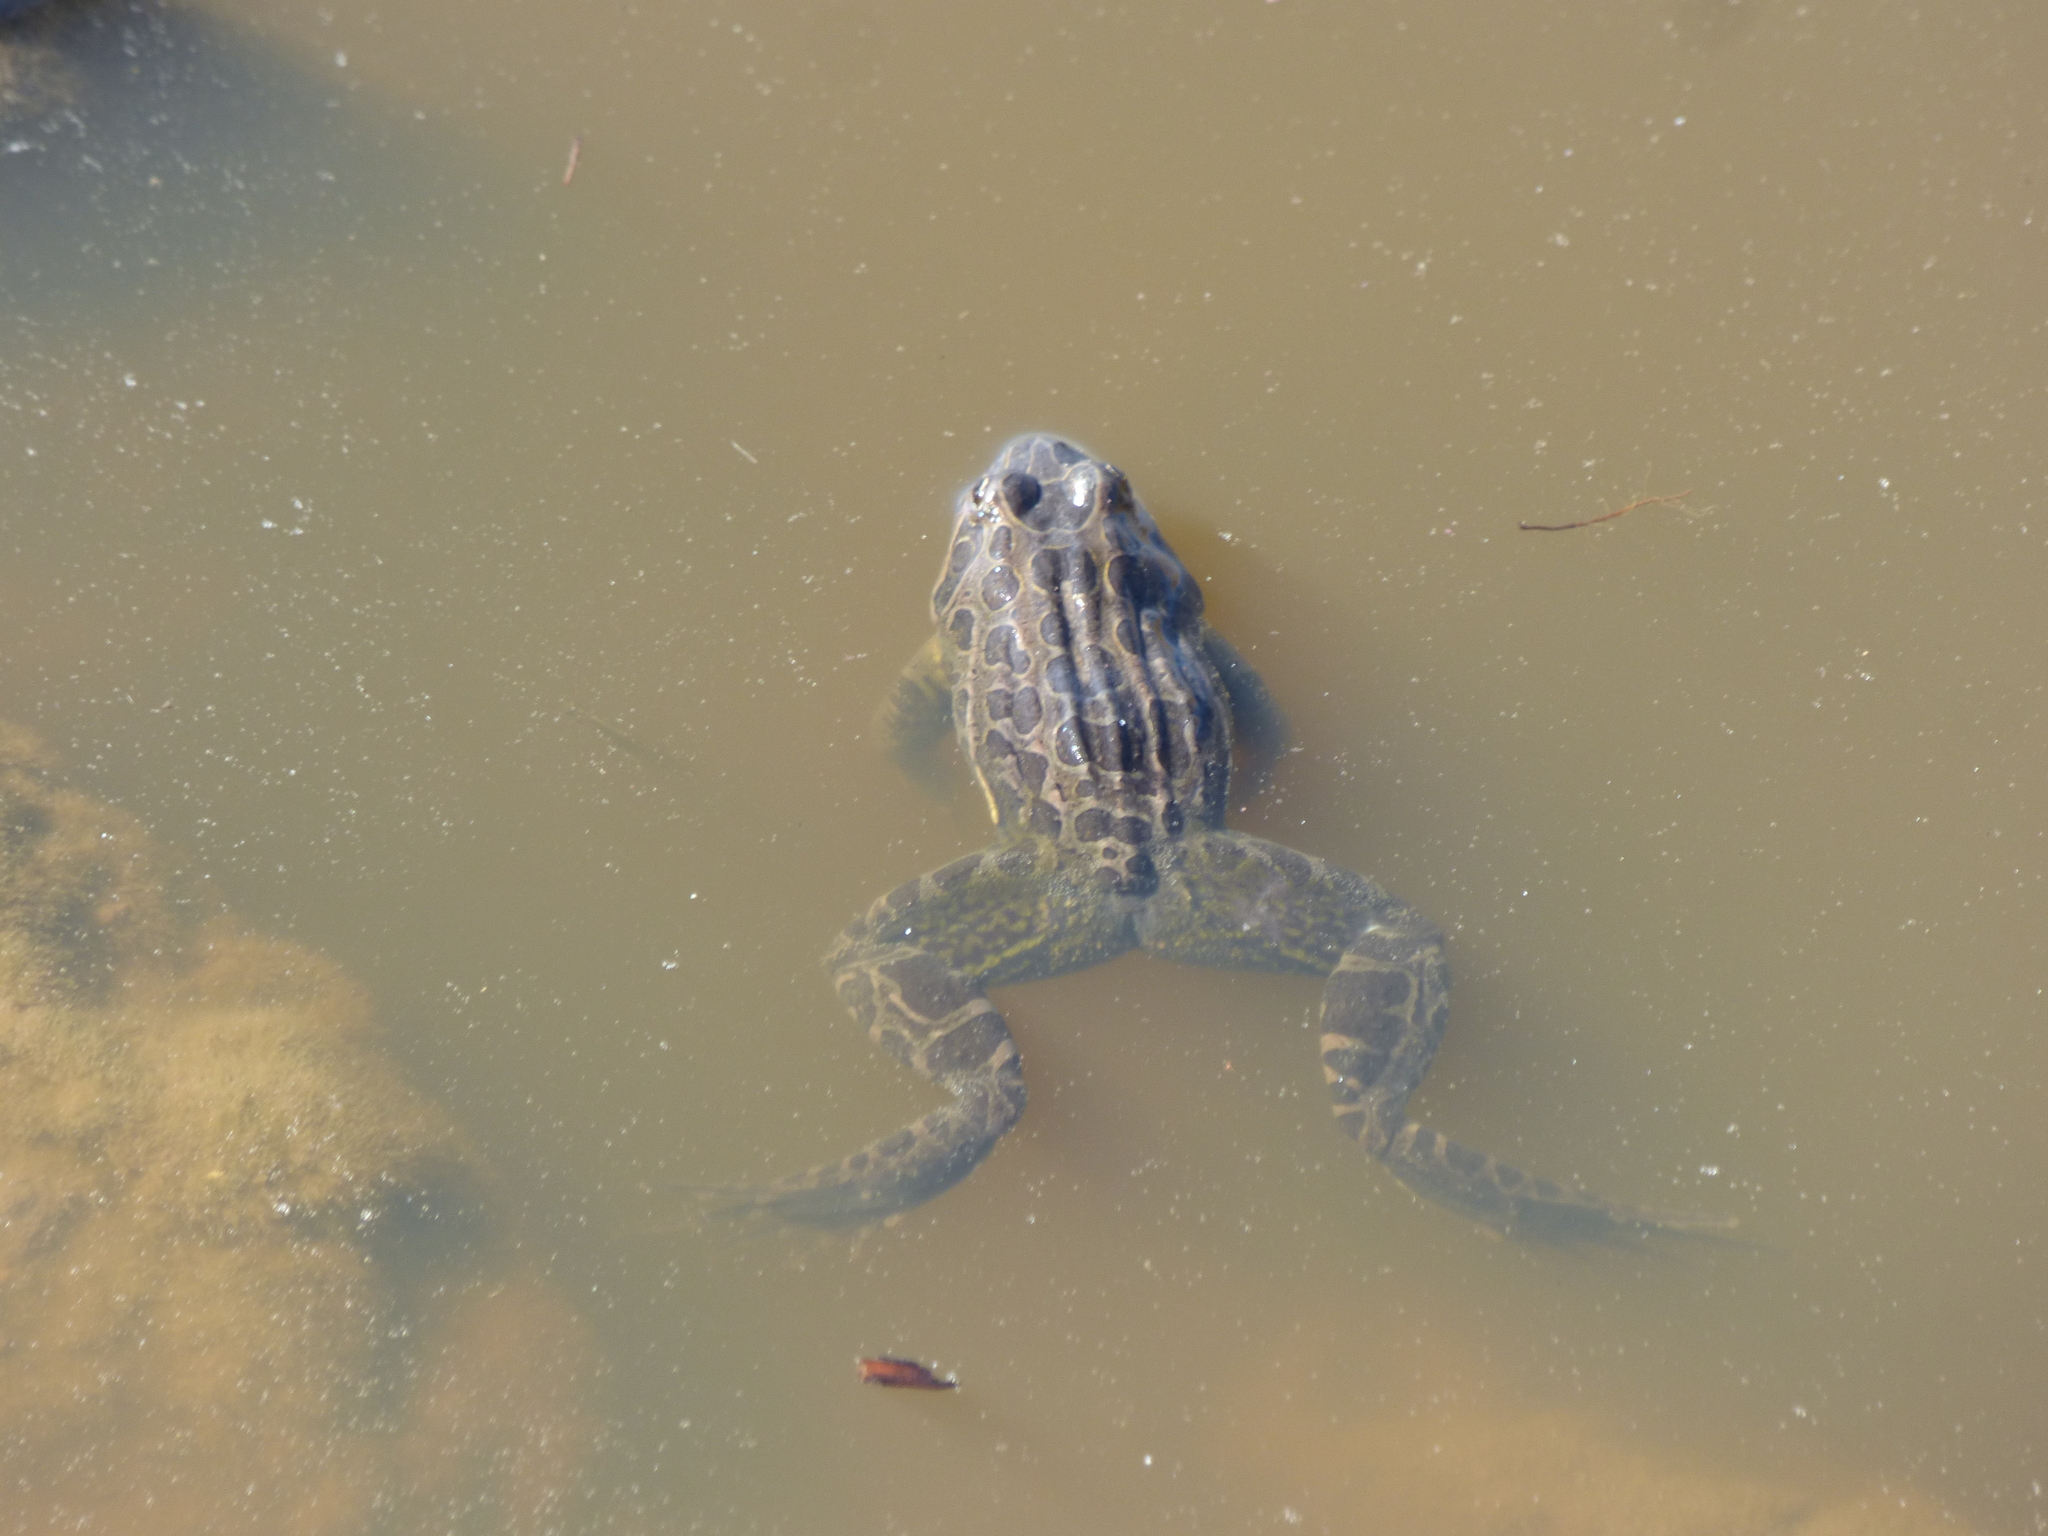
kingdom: Animalia
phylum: Chordata
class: Amphibia
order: Anura
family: Leptodactylidae
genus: Leptodactylus
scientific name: Leptodactylus luctator
